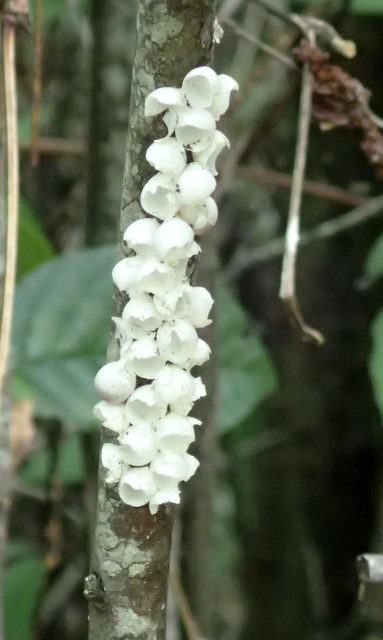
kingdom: Animalia
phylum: Mollusca
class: Gastropoda
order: Architaenioglossa
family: Ampullariidae
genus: Pomacea
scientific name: Pomacea paludosa
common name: Florida applesnail
